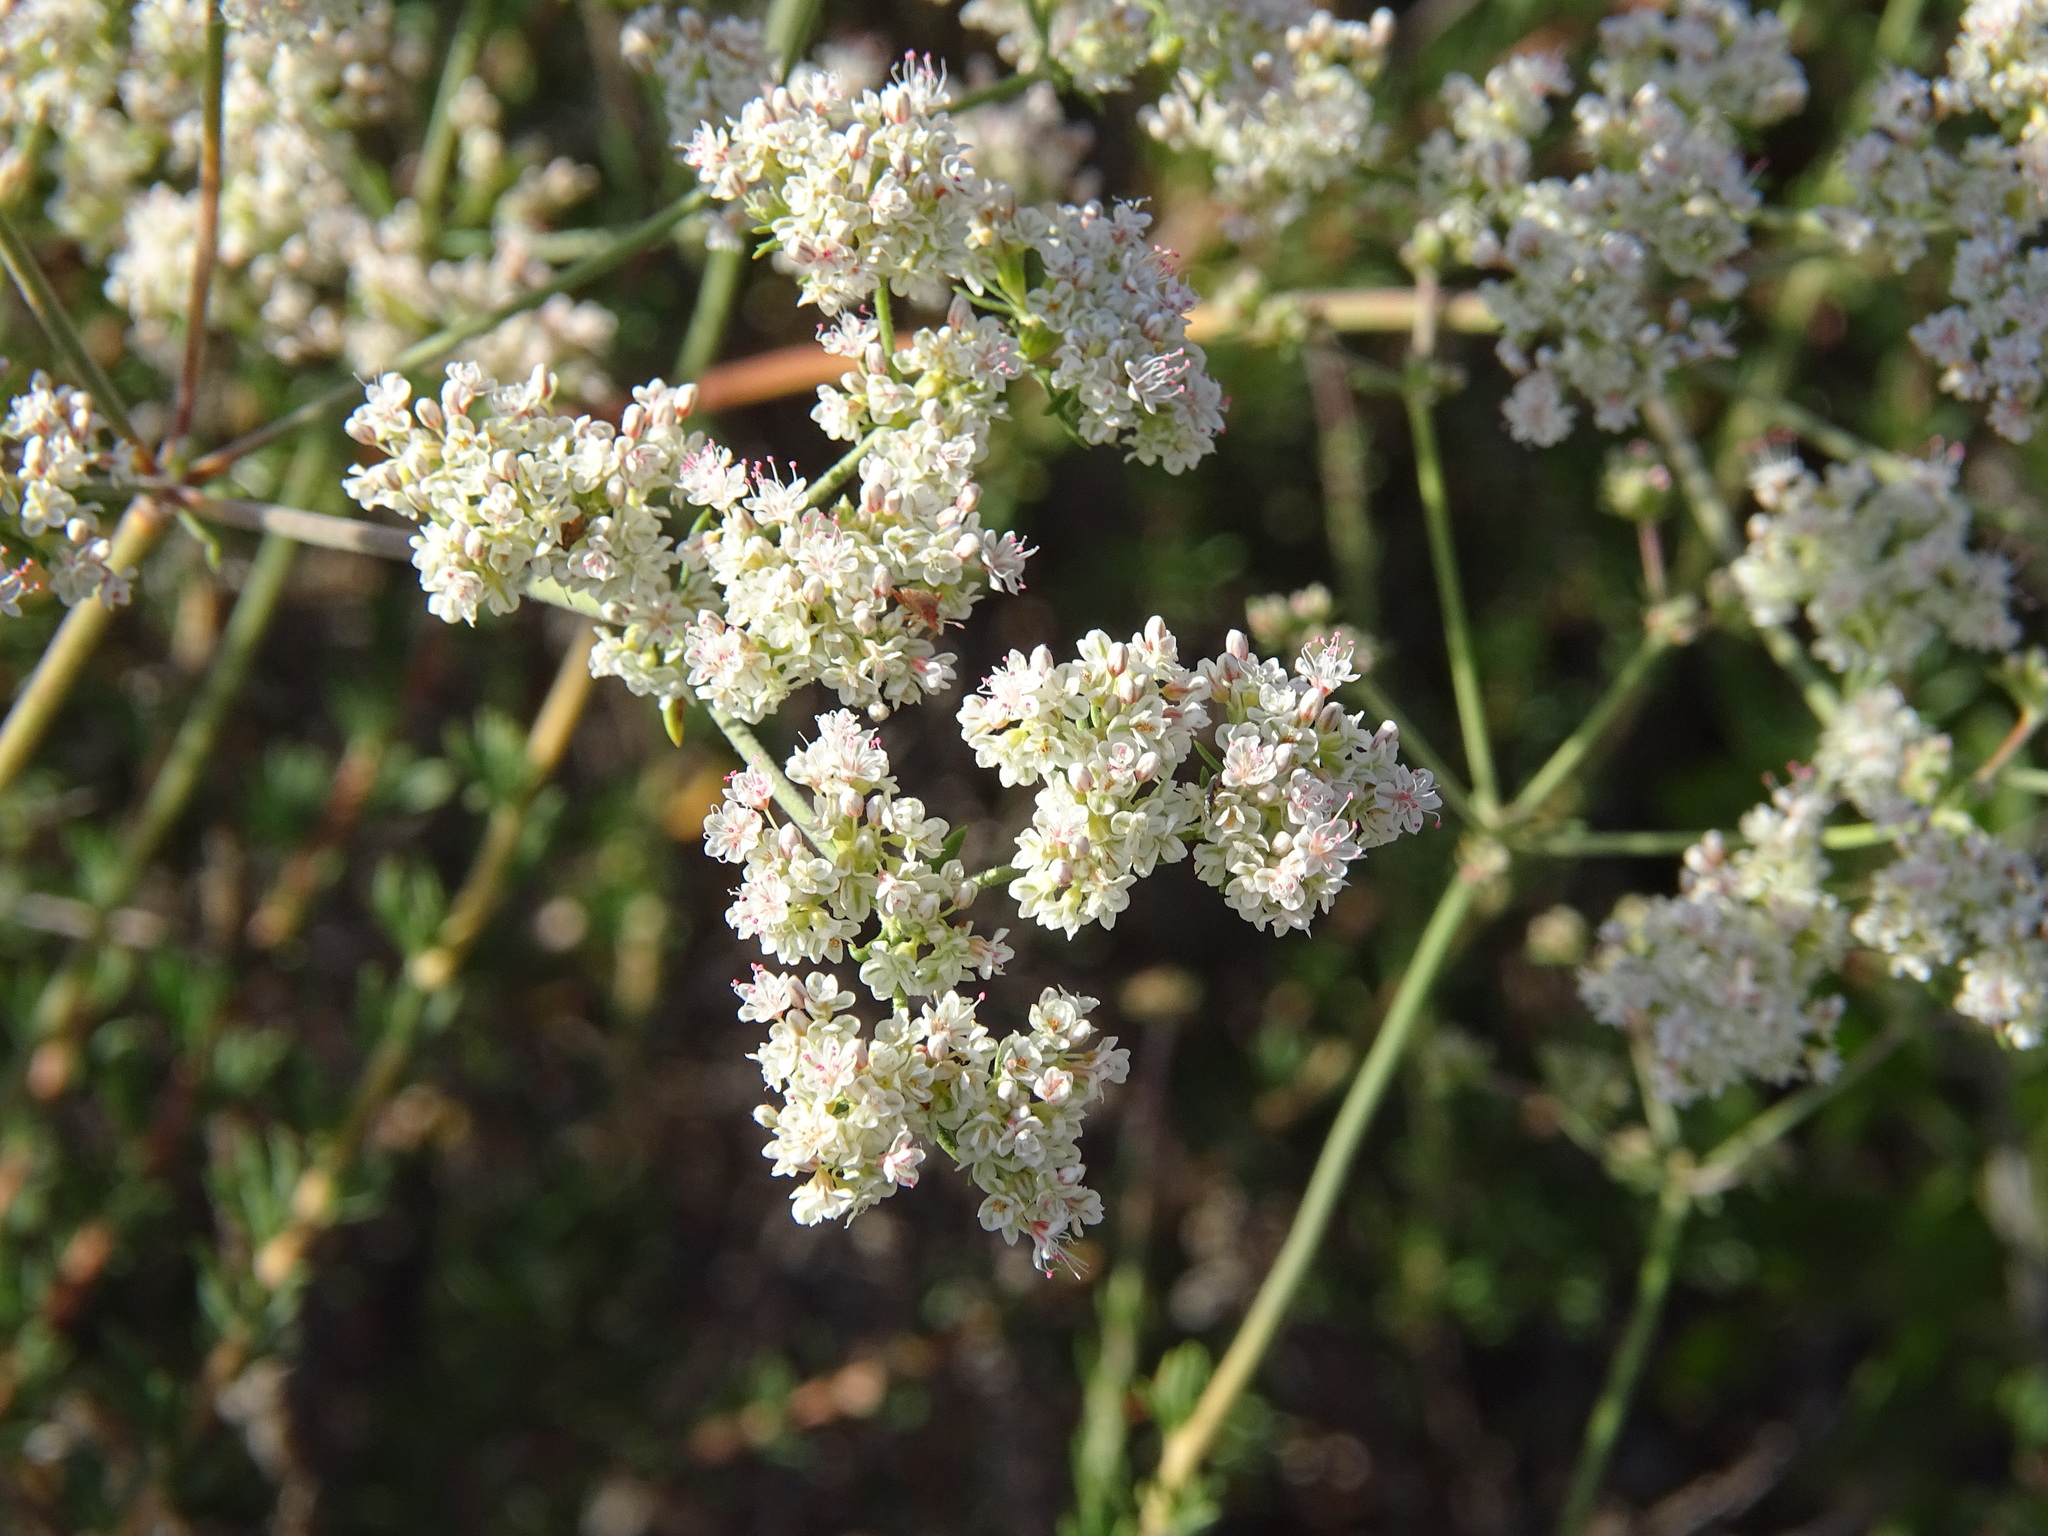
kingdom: Plantae
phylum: Tracheophyta
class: Magnoliopsida
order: Caryophyllales
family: Polygonaceae
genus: Eriogonum
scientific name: Eriogonum fasciculatum
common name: California wild buckwheat
